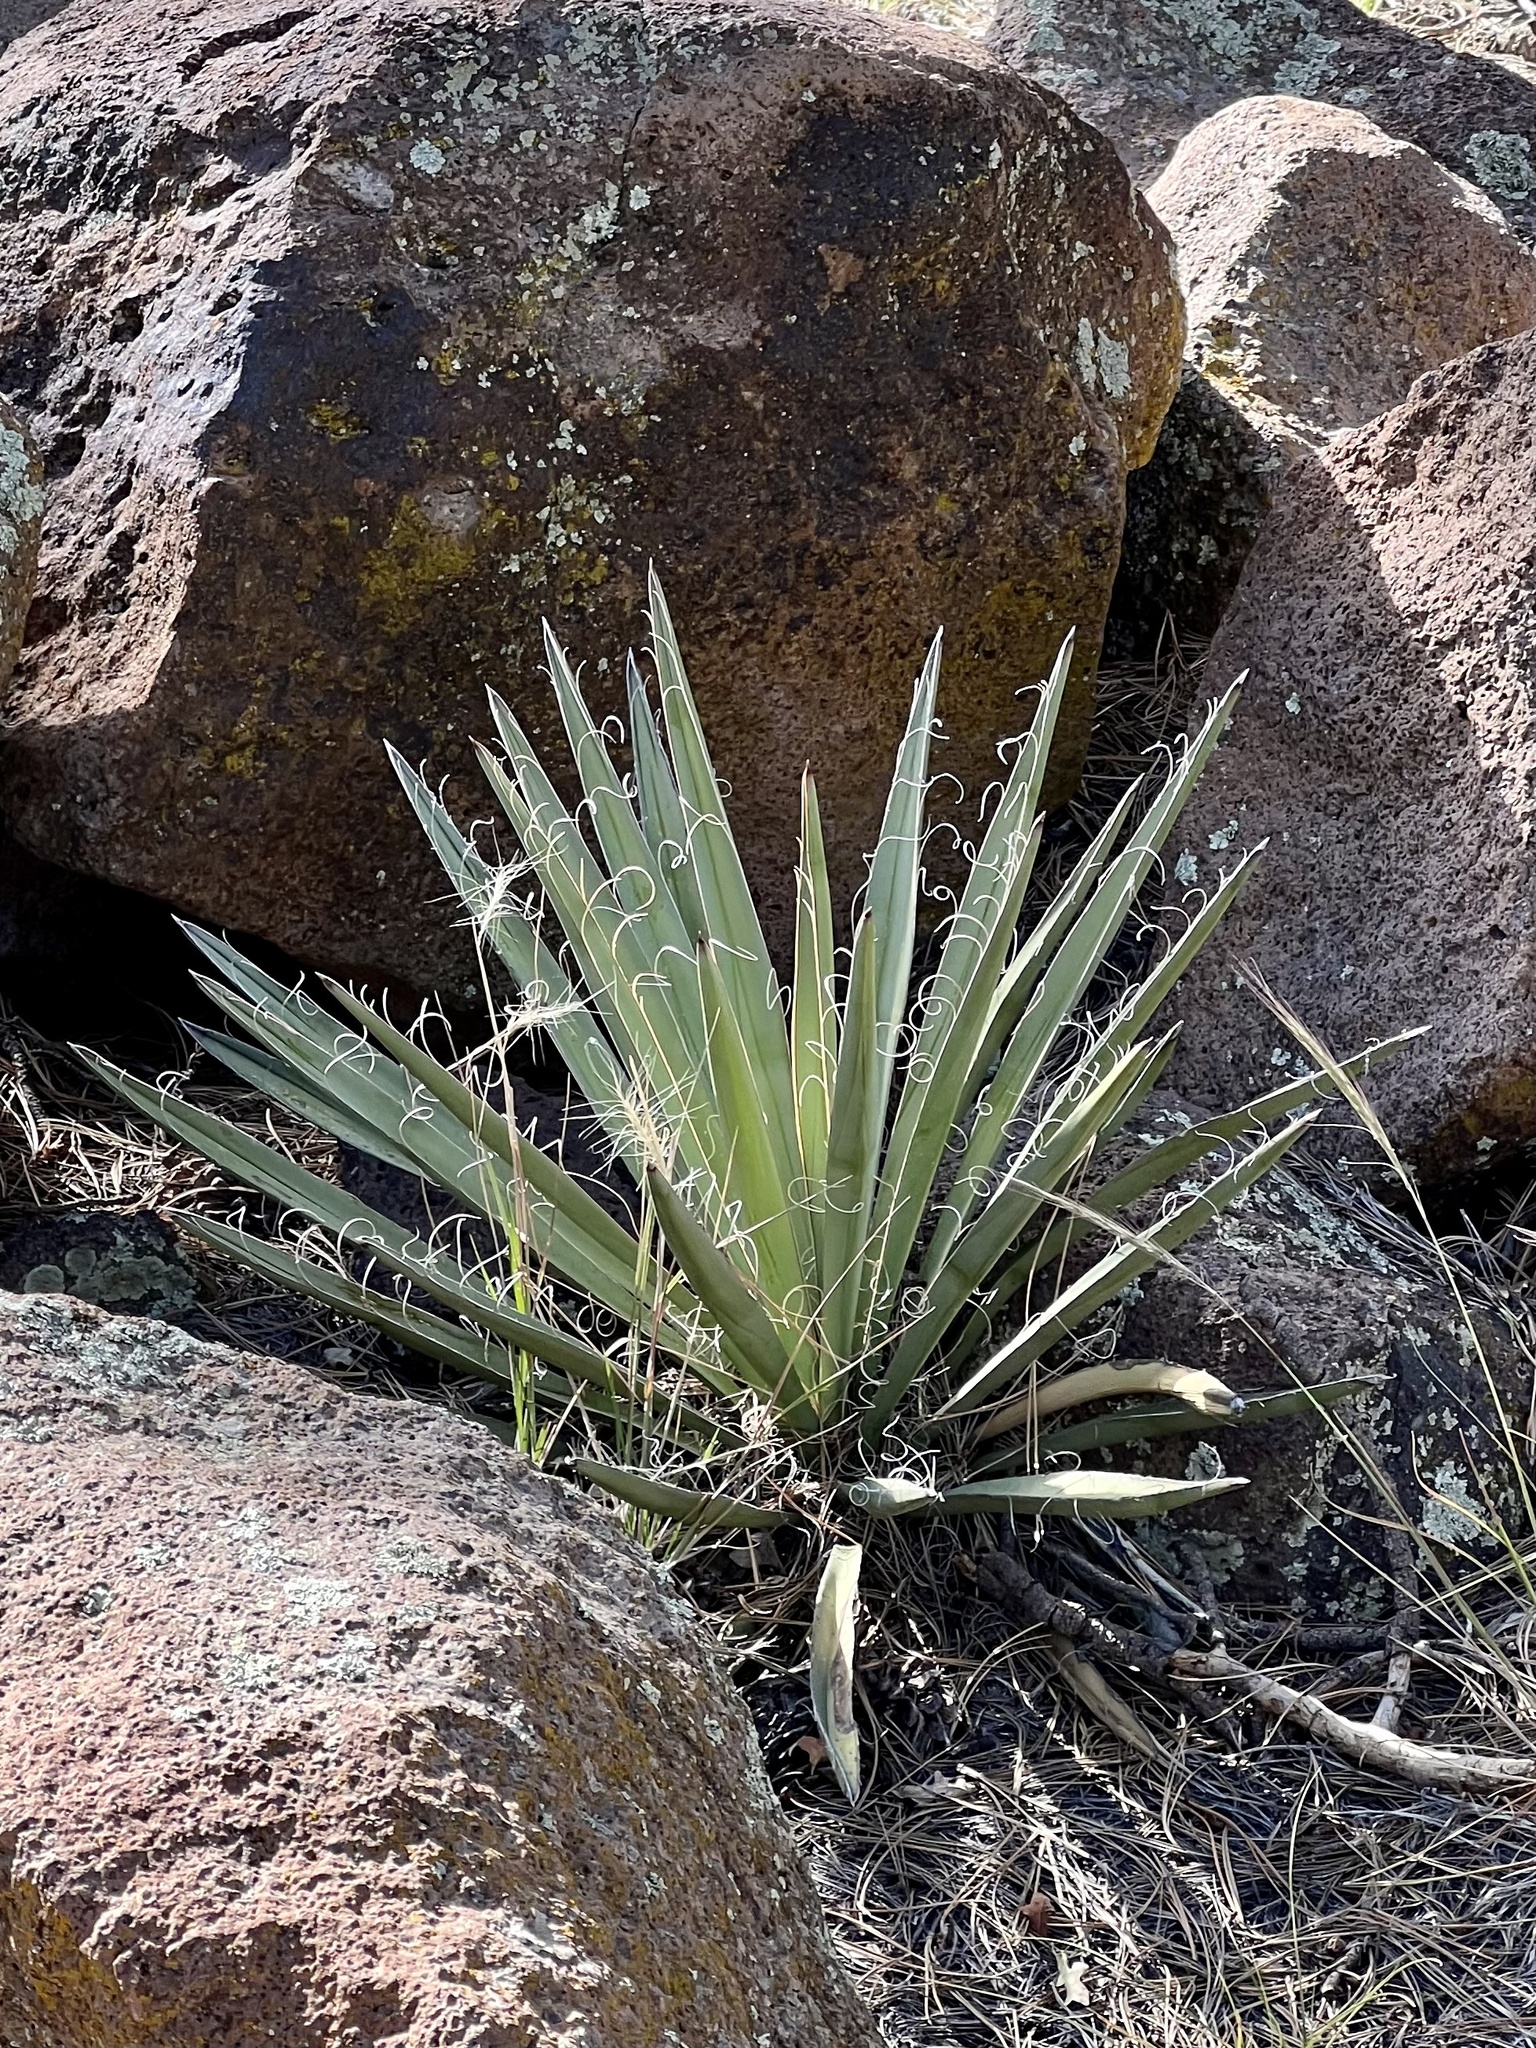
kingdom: Plantae
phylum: Tracheophyta
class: Liliopsida
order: Asparagales
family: Asparagaceae
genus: Yucca
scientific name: Yucca baccata
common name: Banana yucca
